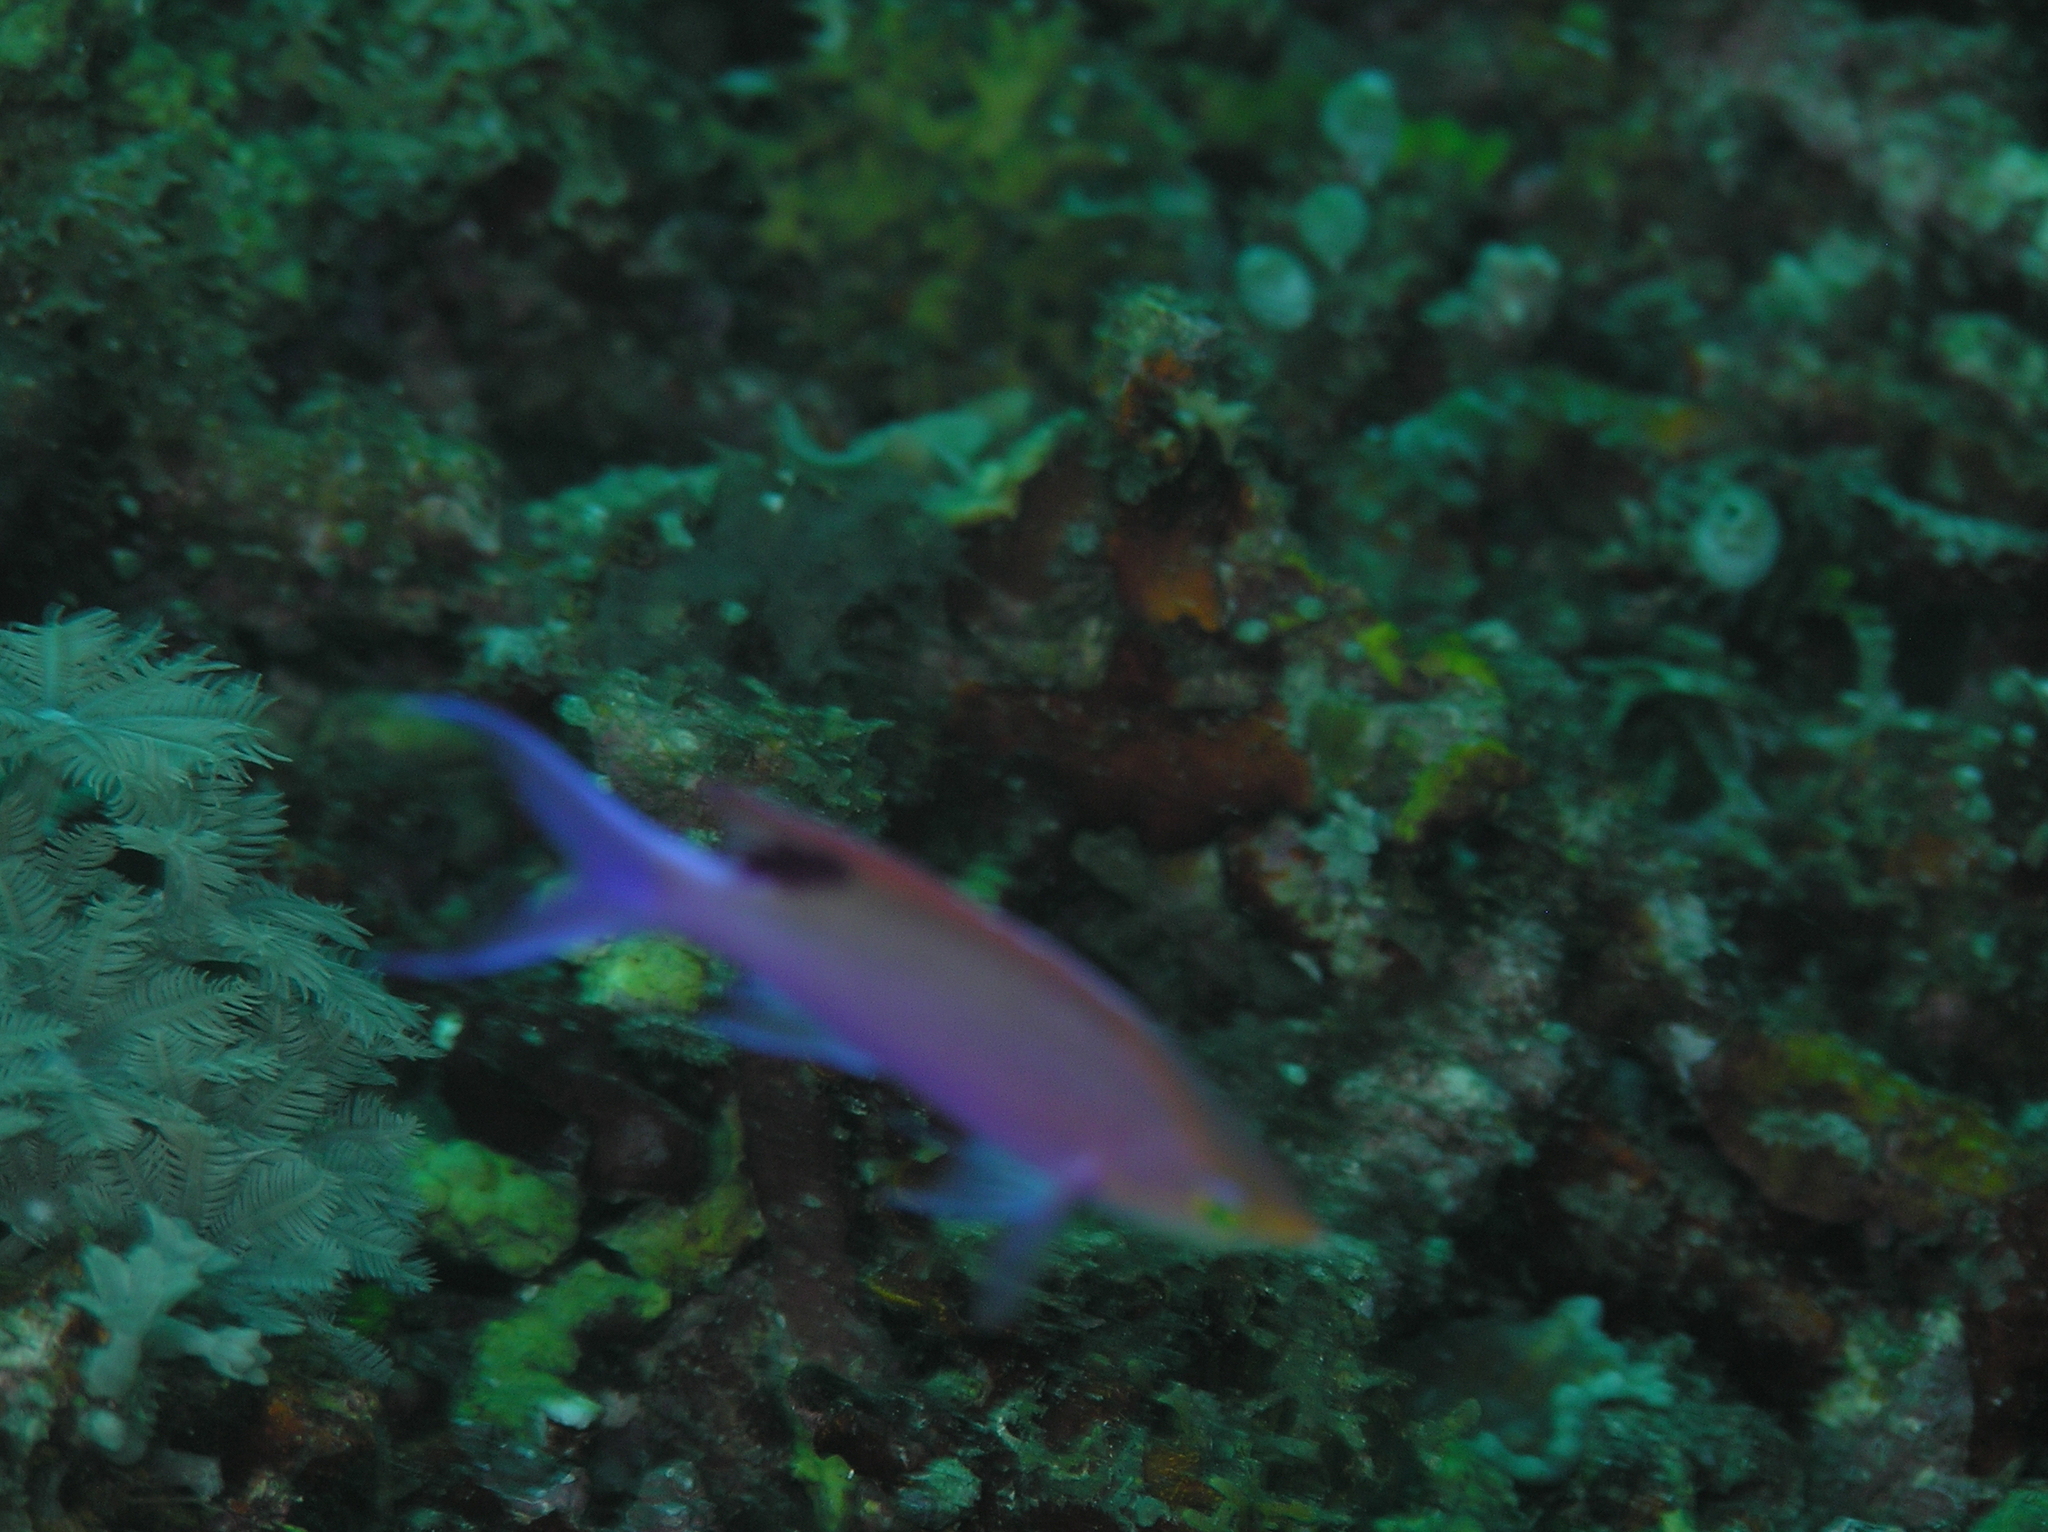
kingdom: Animalia
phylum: Chordata
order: Perciformes
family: Serranidae
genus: Pseudanthias
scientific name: Pseudanthias tuka
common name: Purple queen
